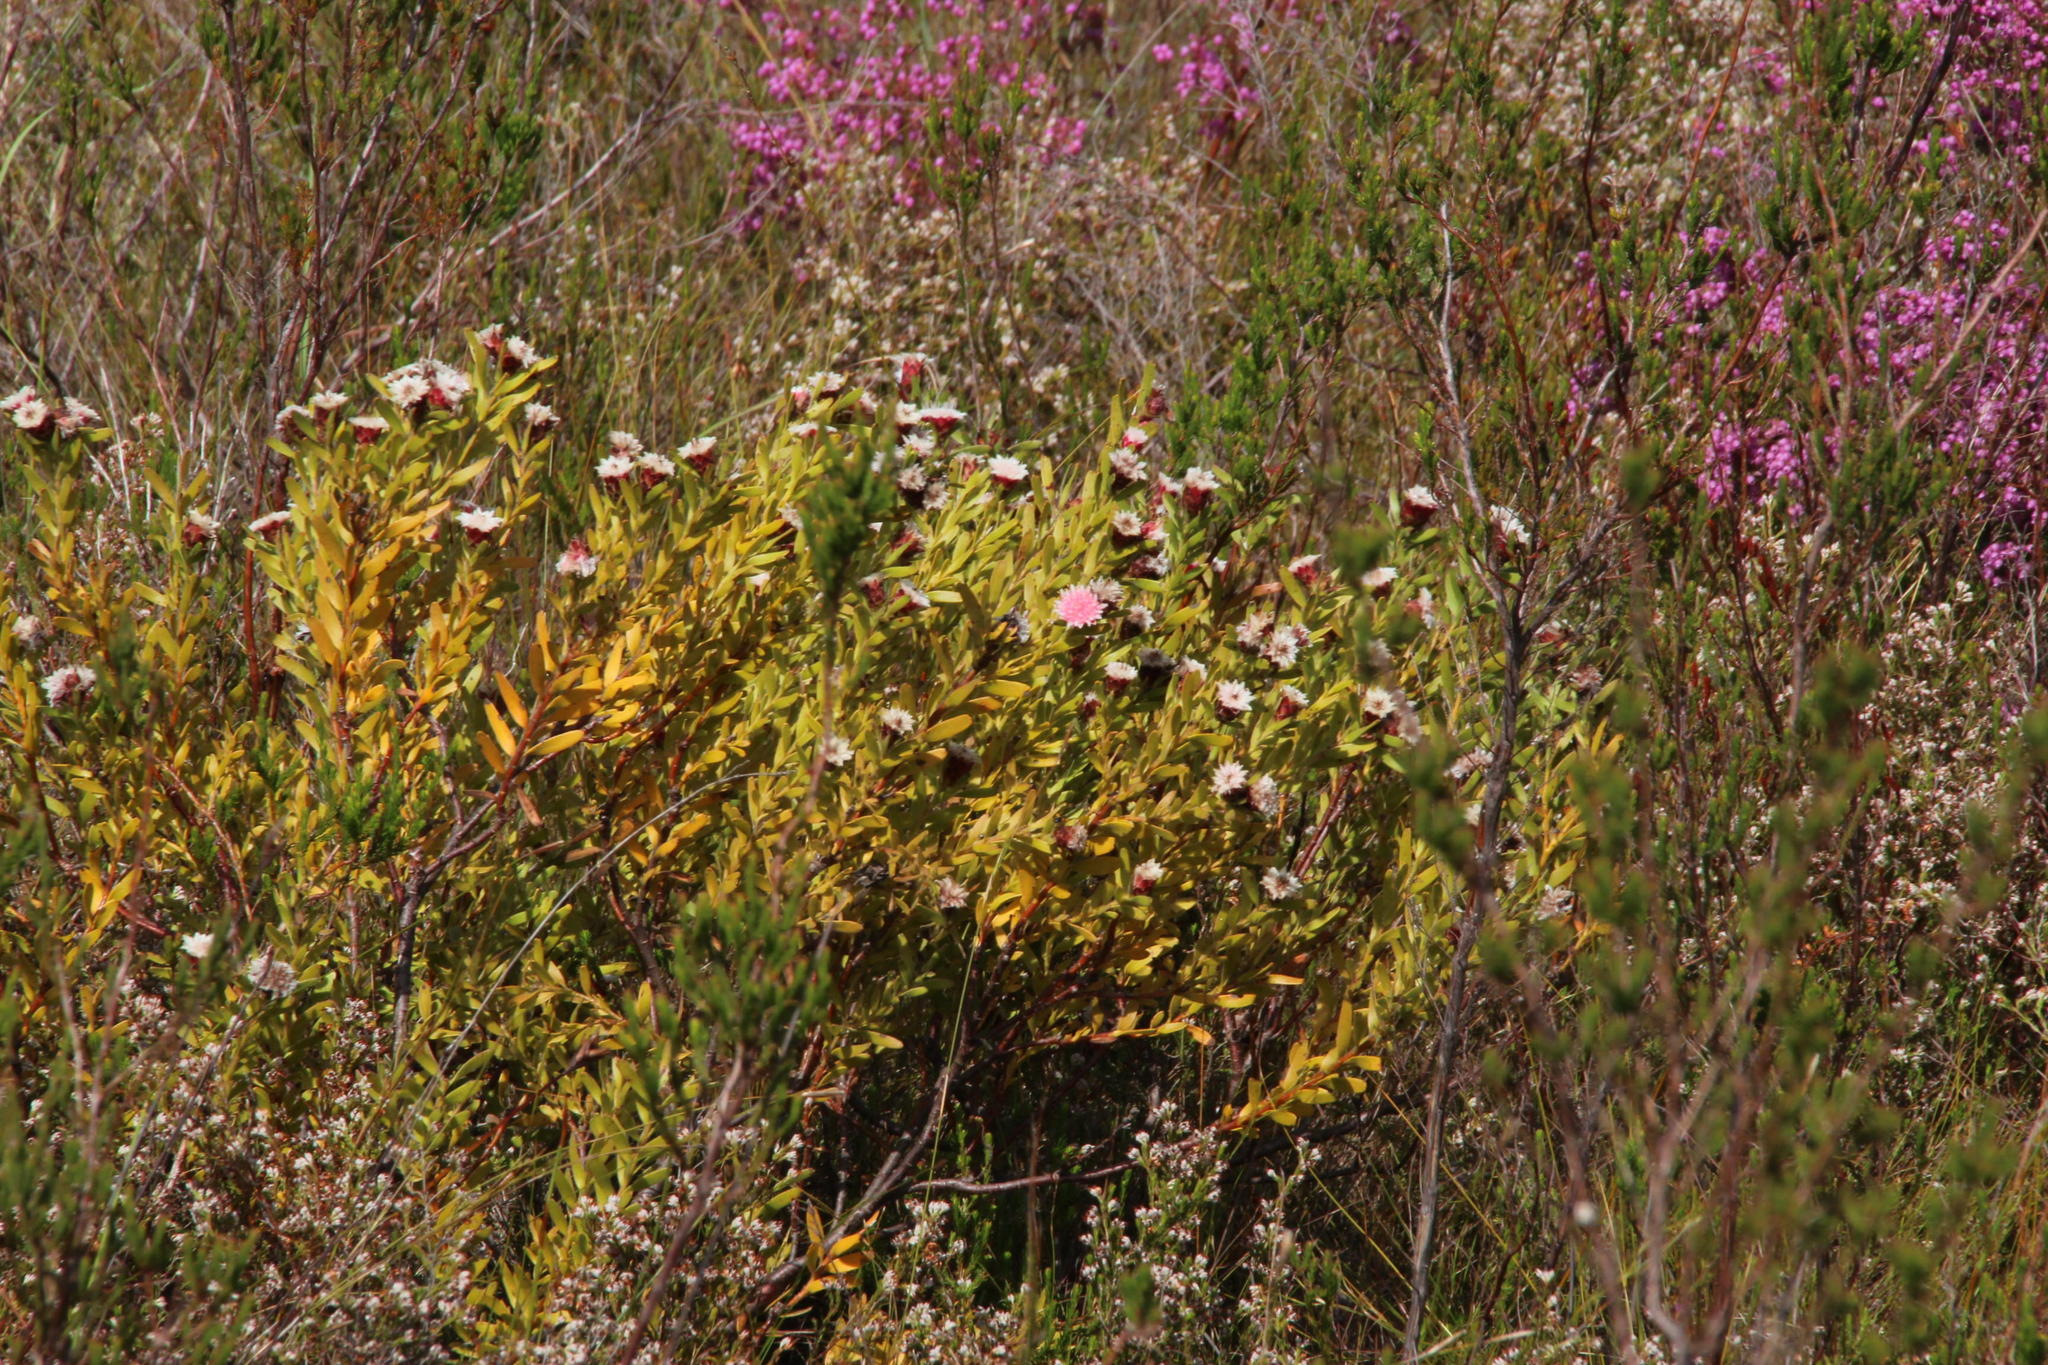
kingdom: Plantae
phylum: Tracheophyta
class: Magnoliopsida
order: Proteales
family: Proteaceae
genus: Diastella
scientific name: Diastella parilis
